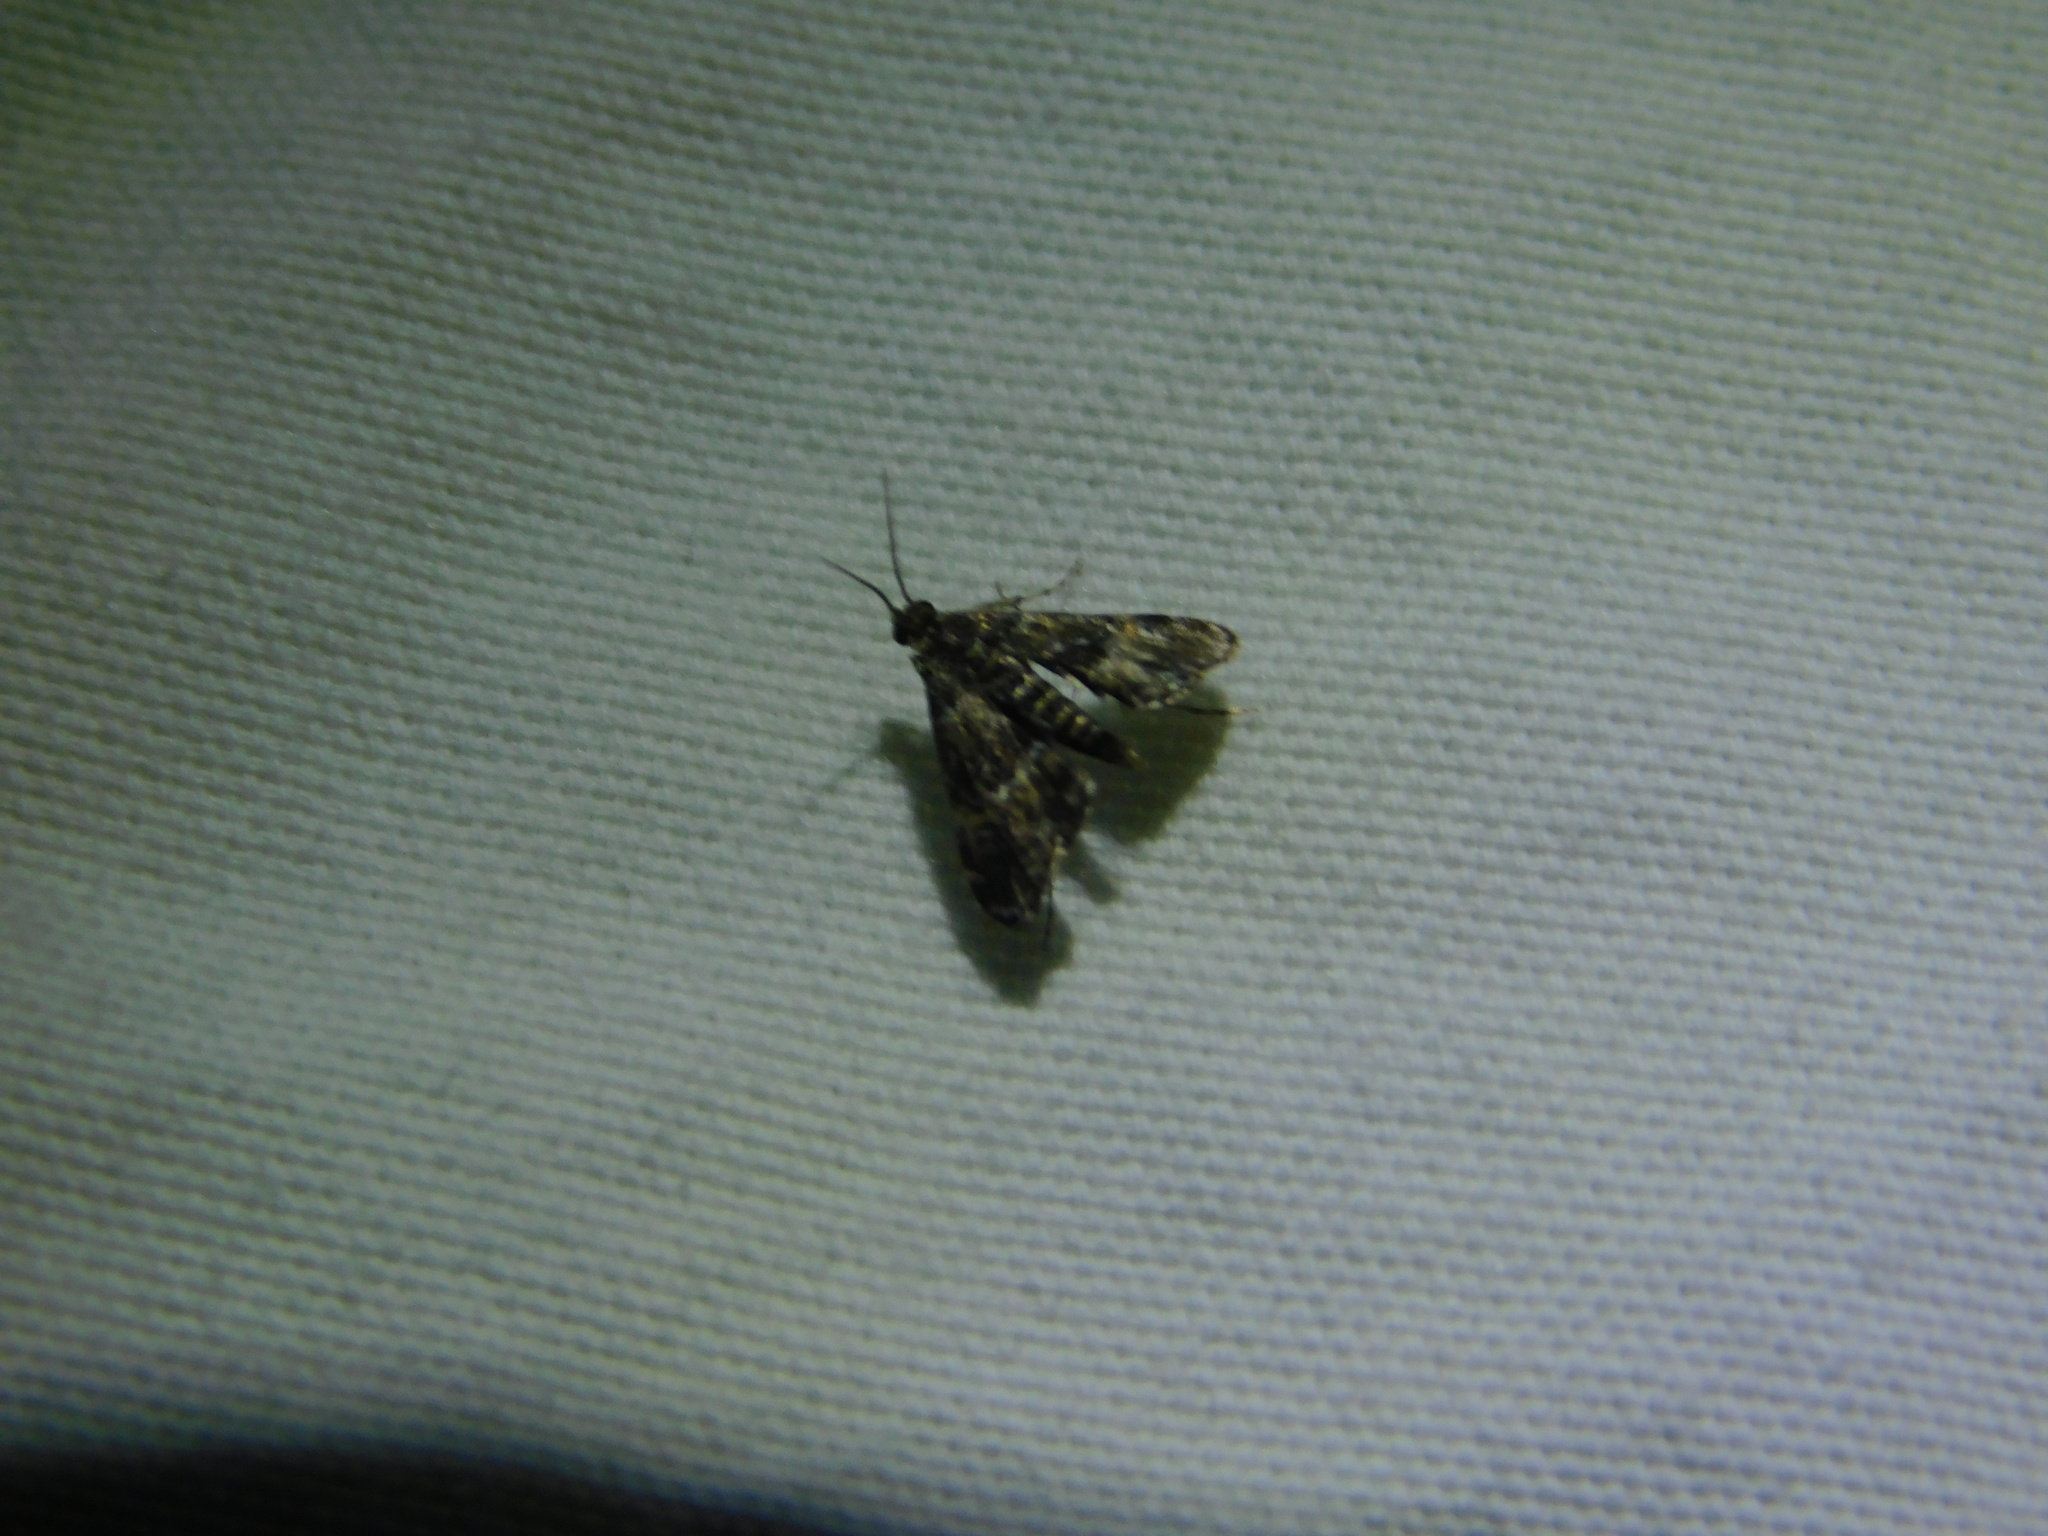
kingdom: Animalia
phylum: Arthropoda
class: Insecta
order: Lepidoptera
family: Crambidae
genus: Elophila
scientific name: Elophila obliteralis
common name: Waterlily leafcutter moth
